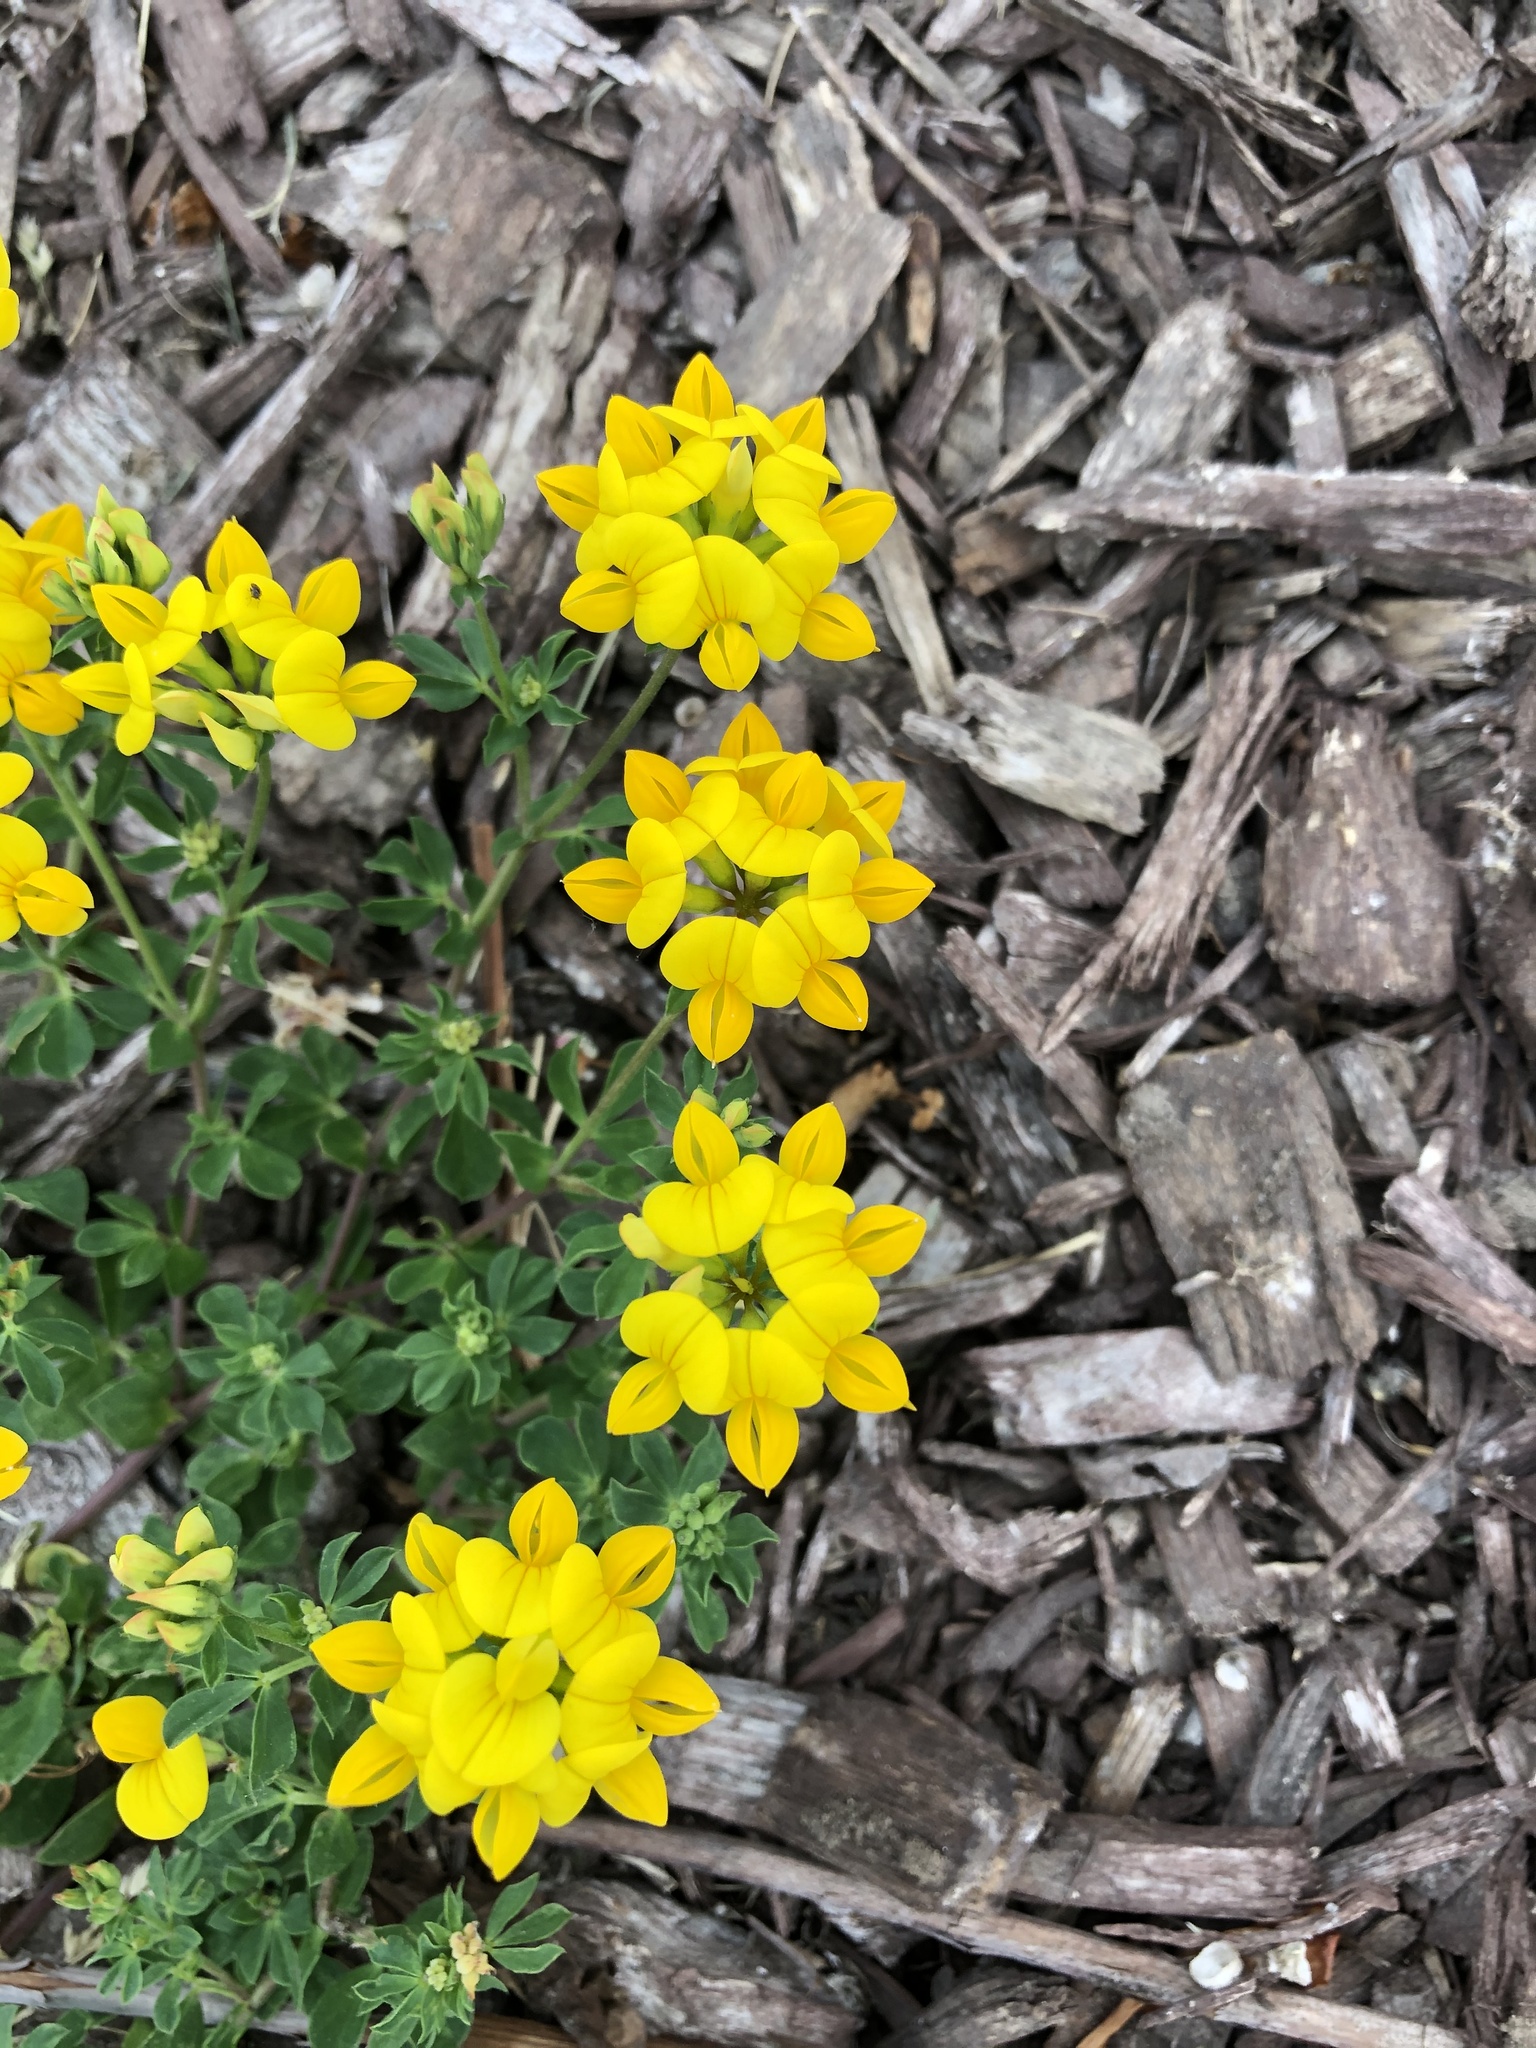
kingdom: Plantae
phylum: Tracheophyta
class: Magnoliopsida
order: Fabales
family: Fabaceae
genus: Lotus
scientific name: Lotus corniculatus
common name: Common bird's-foot-trefoil
